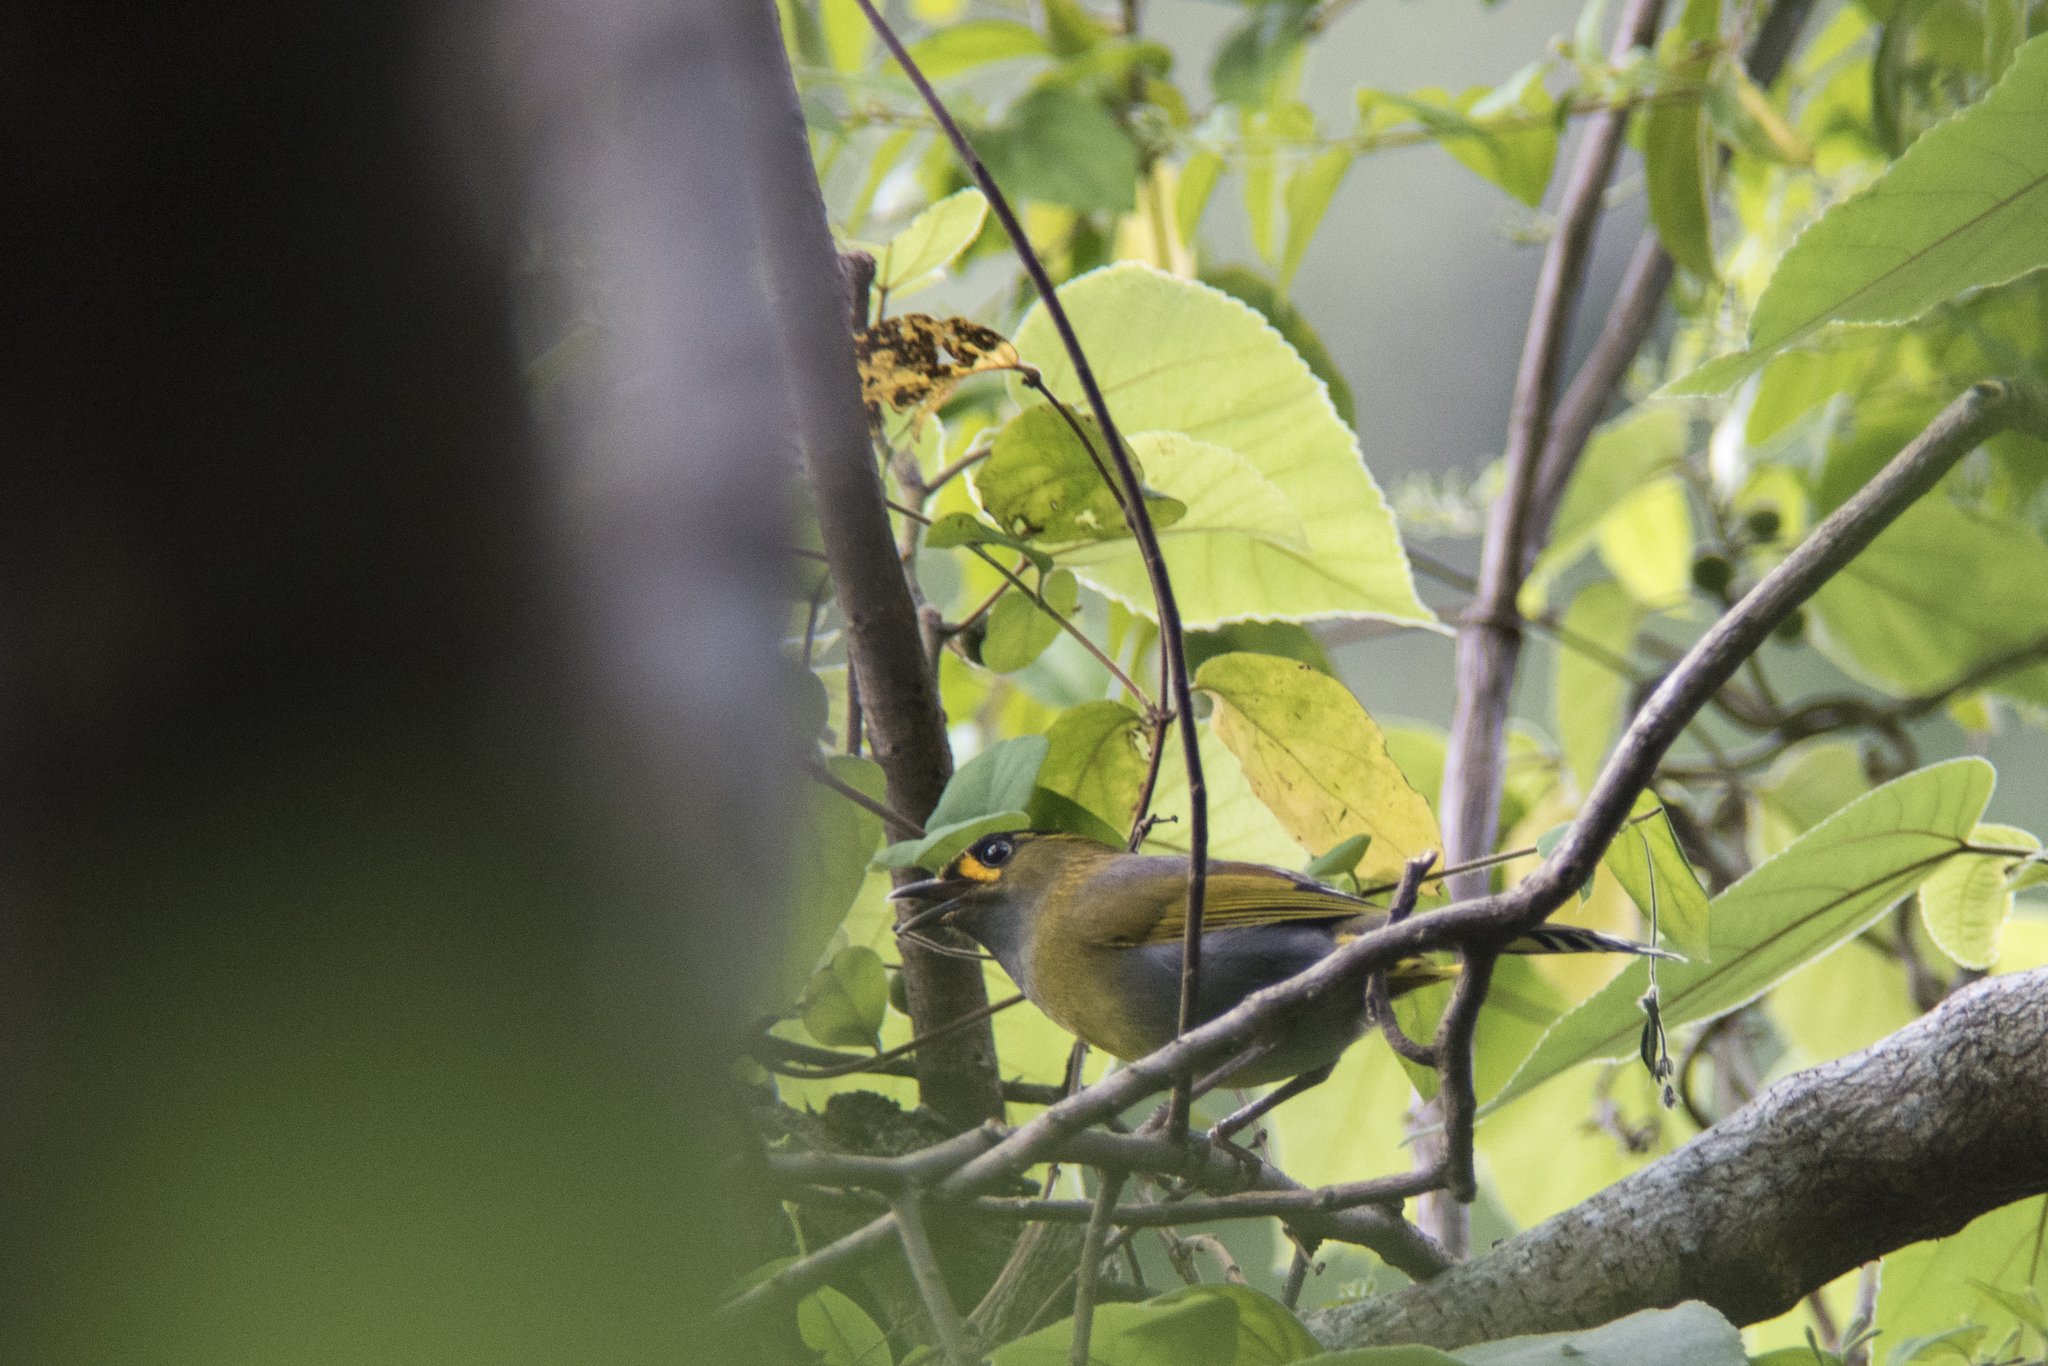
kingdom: Animalia
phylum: Chordata
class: Aves
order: Passeriformes
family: Leiothrichidae
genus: Liocichla
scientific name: Liocichla steerii
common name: Steere's liocichla
